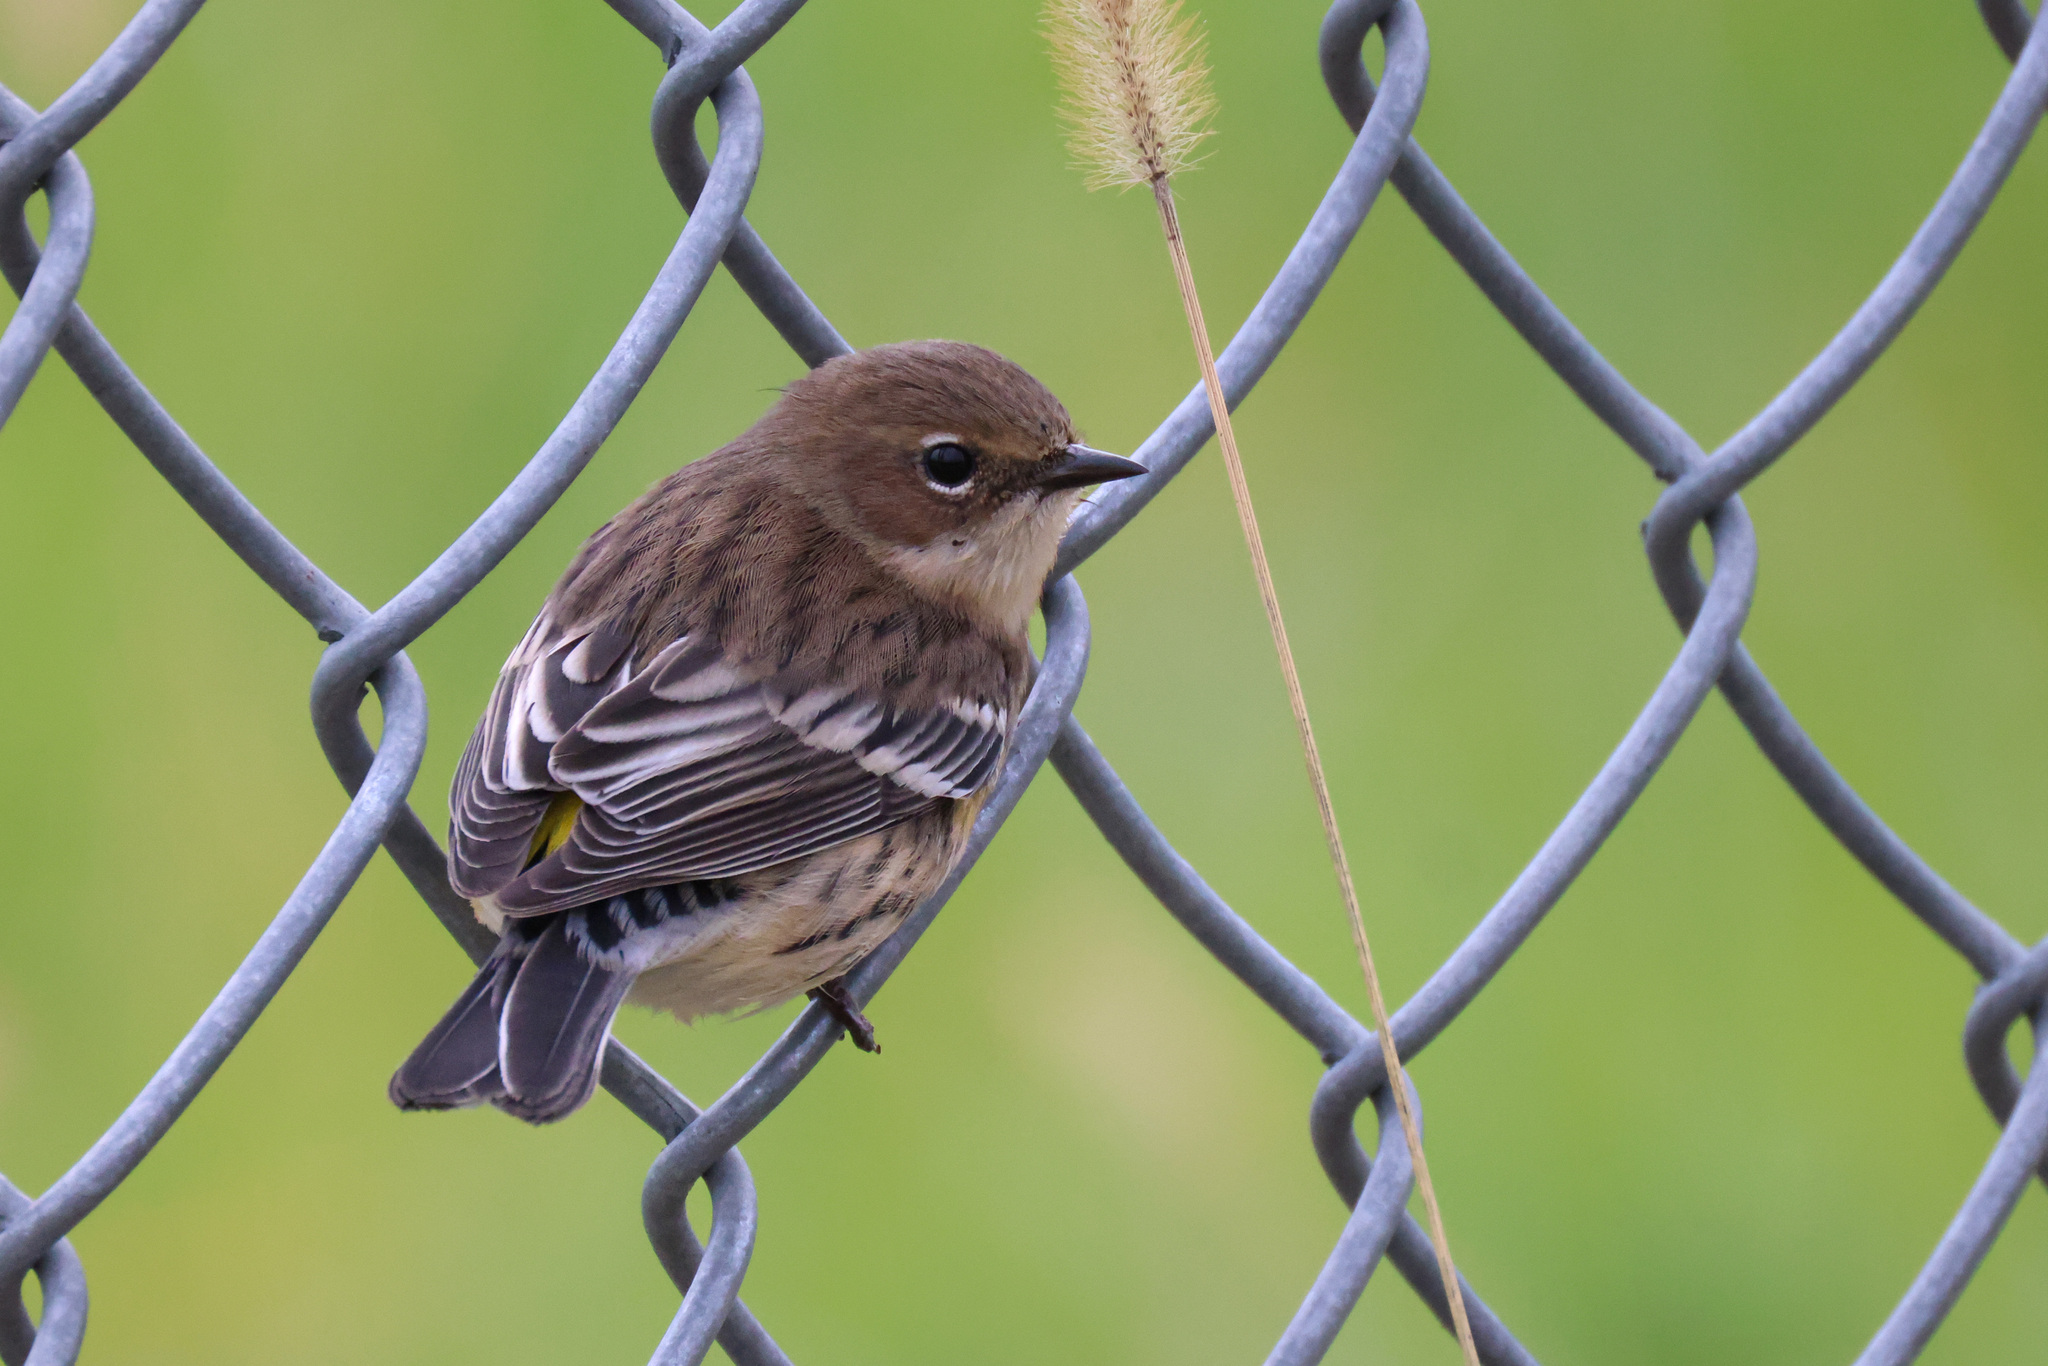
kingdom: Animalia
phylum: Chordata
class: Aves
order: Passeriformes
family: Parulidae
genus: Setophaga
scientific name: Setophaga coronata
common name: Myrtle warbler
